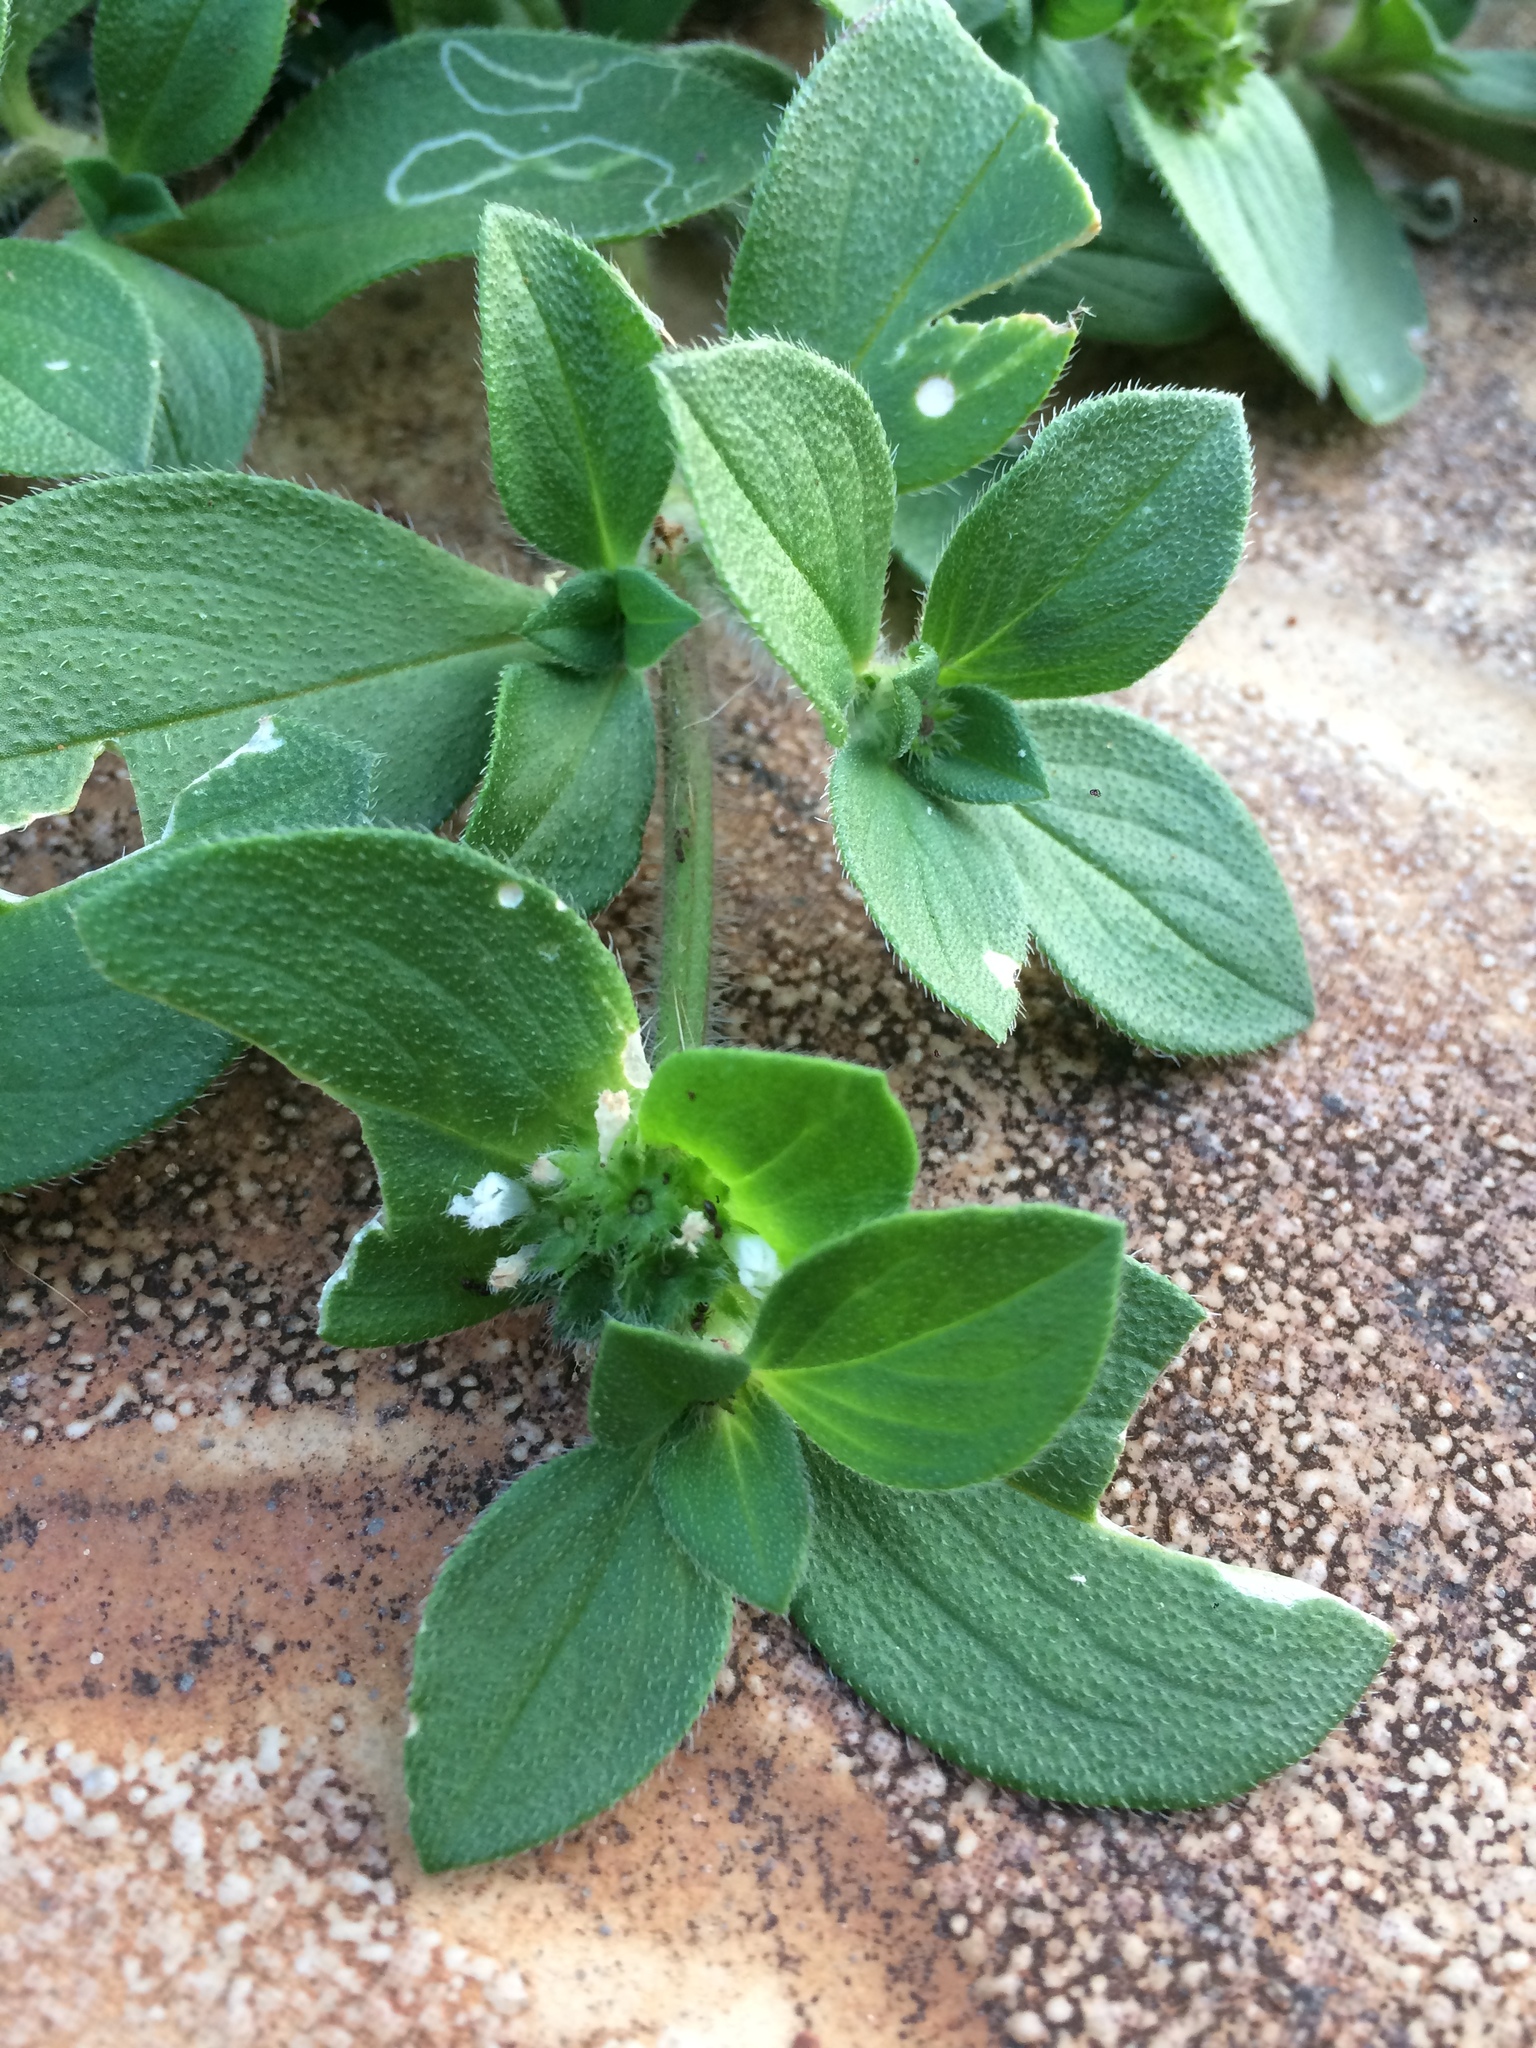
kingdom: Plantae
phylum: Tracheophyta
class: Magnoliopsida
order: Gentianales
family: Rubiaceae
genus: Richardia
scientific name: Richardia brasiliensis
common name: Tropical mexican clover
